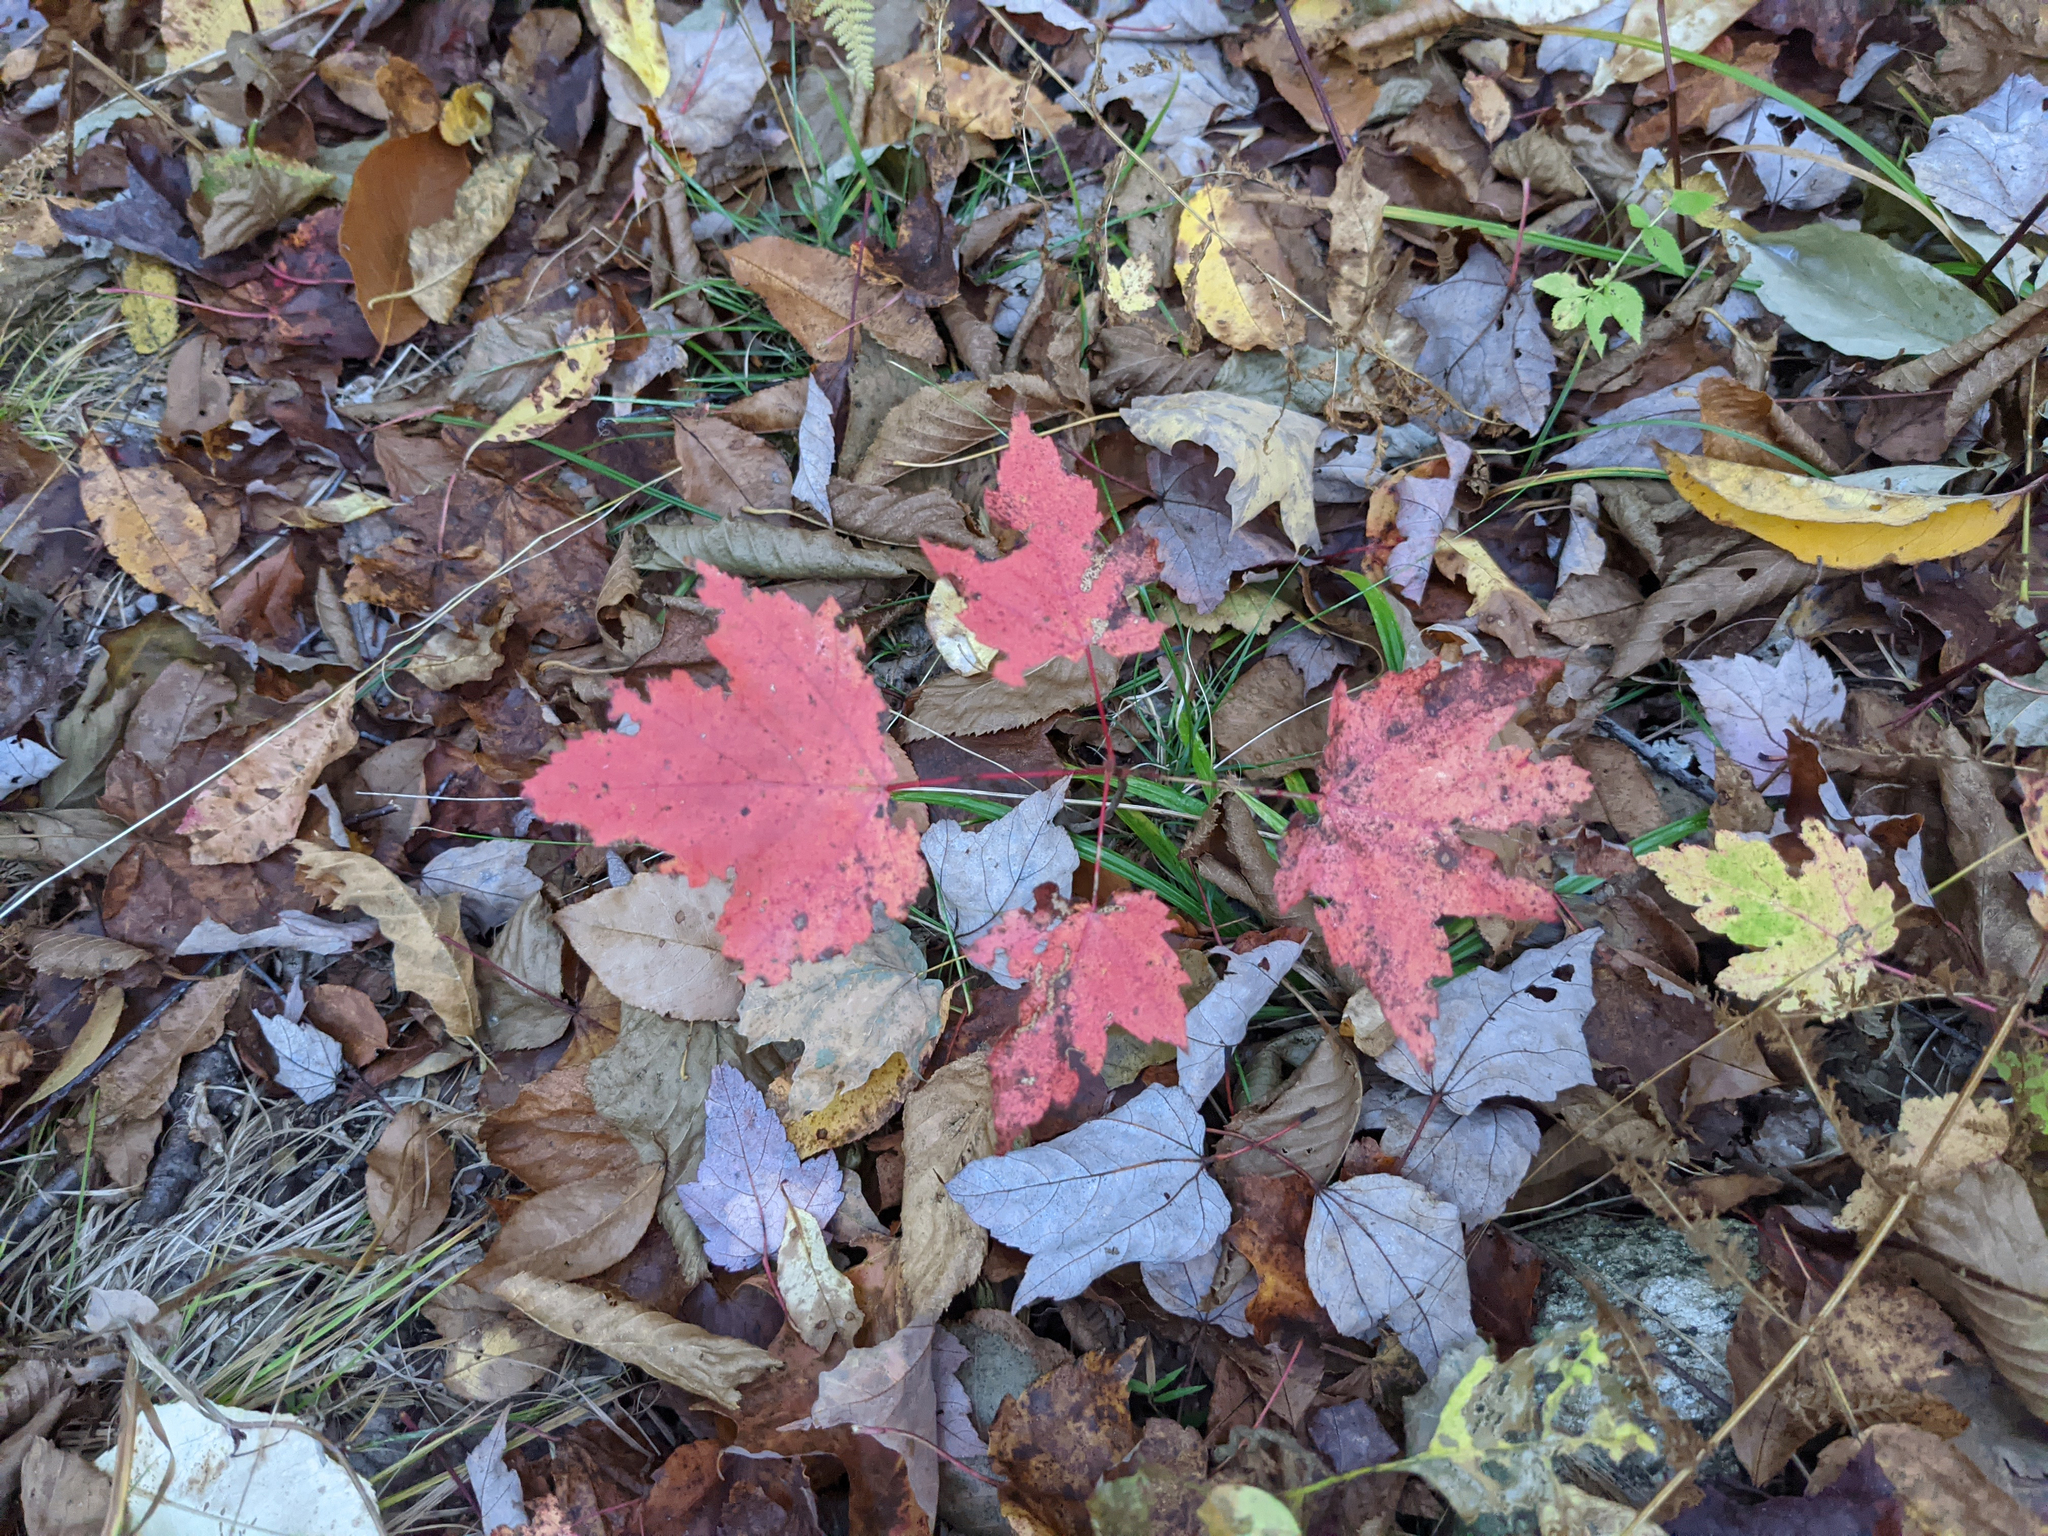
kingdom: Plantae
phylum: Tracheophyta
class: Magnoliopsida
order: Sapindales
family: Sapindaceae
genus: Acer
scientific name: Acer rubrum
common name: Red maple
